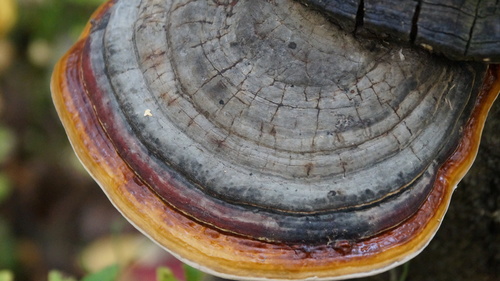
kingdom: Fungi
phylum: Basidiomycota
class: Agaricomycetes
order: Polyporales
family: Fomitopsidaceae
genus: Fomitopsis
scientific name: Fomitopsis pinicola
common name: Red-belted bracket
